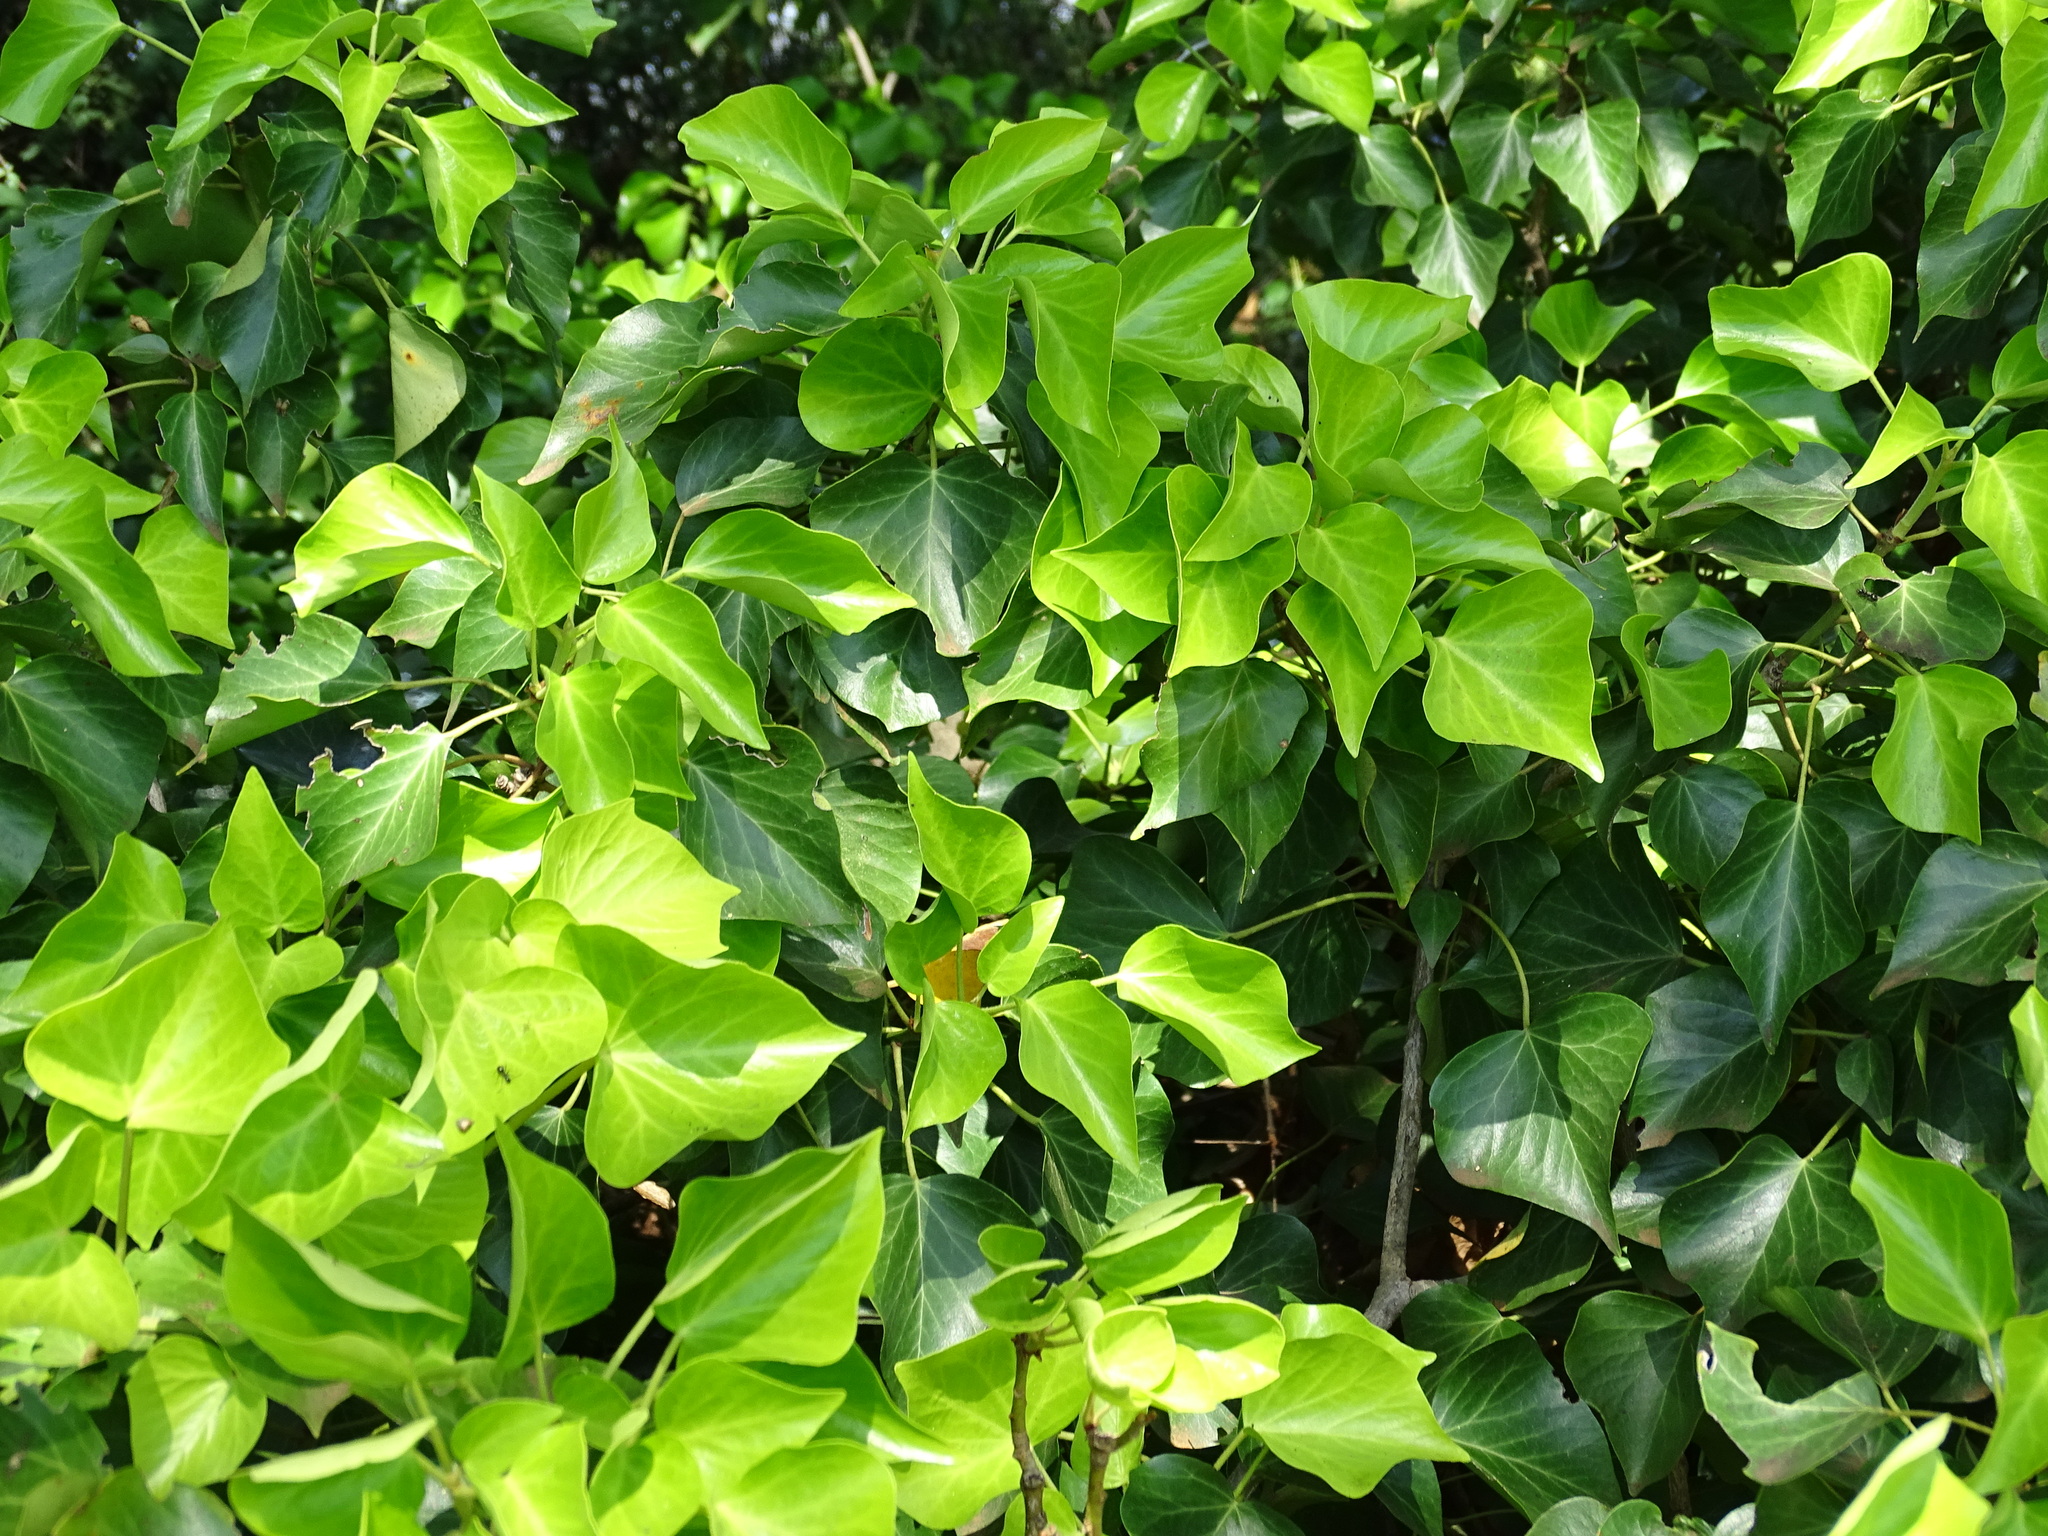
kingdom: Plantae
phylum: Tracheophyta
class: Magnoliopsida
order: Apiales
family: Araliaceae
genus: Hedera
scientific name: Hedera helix
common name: Ivy
